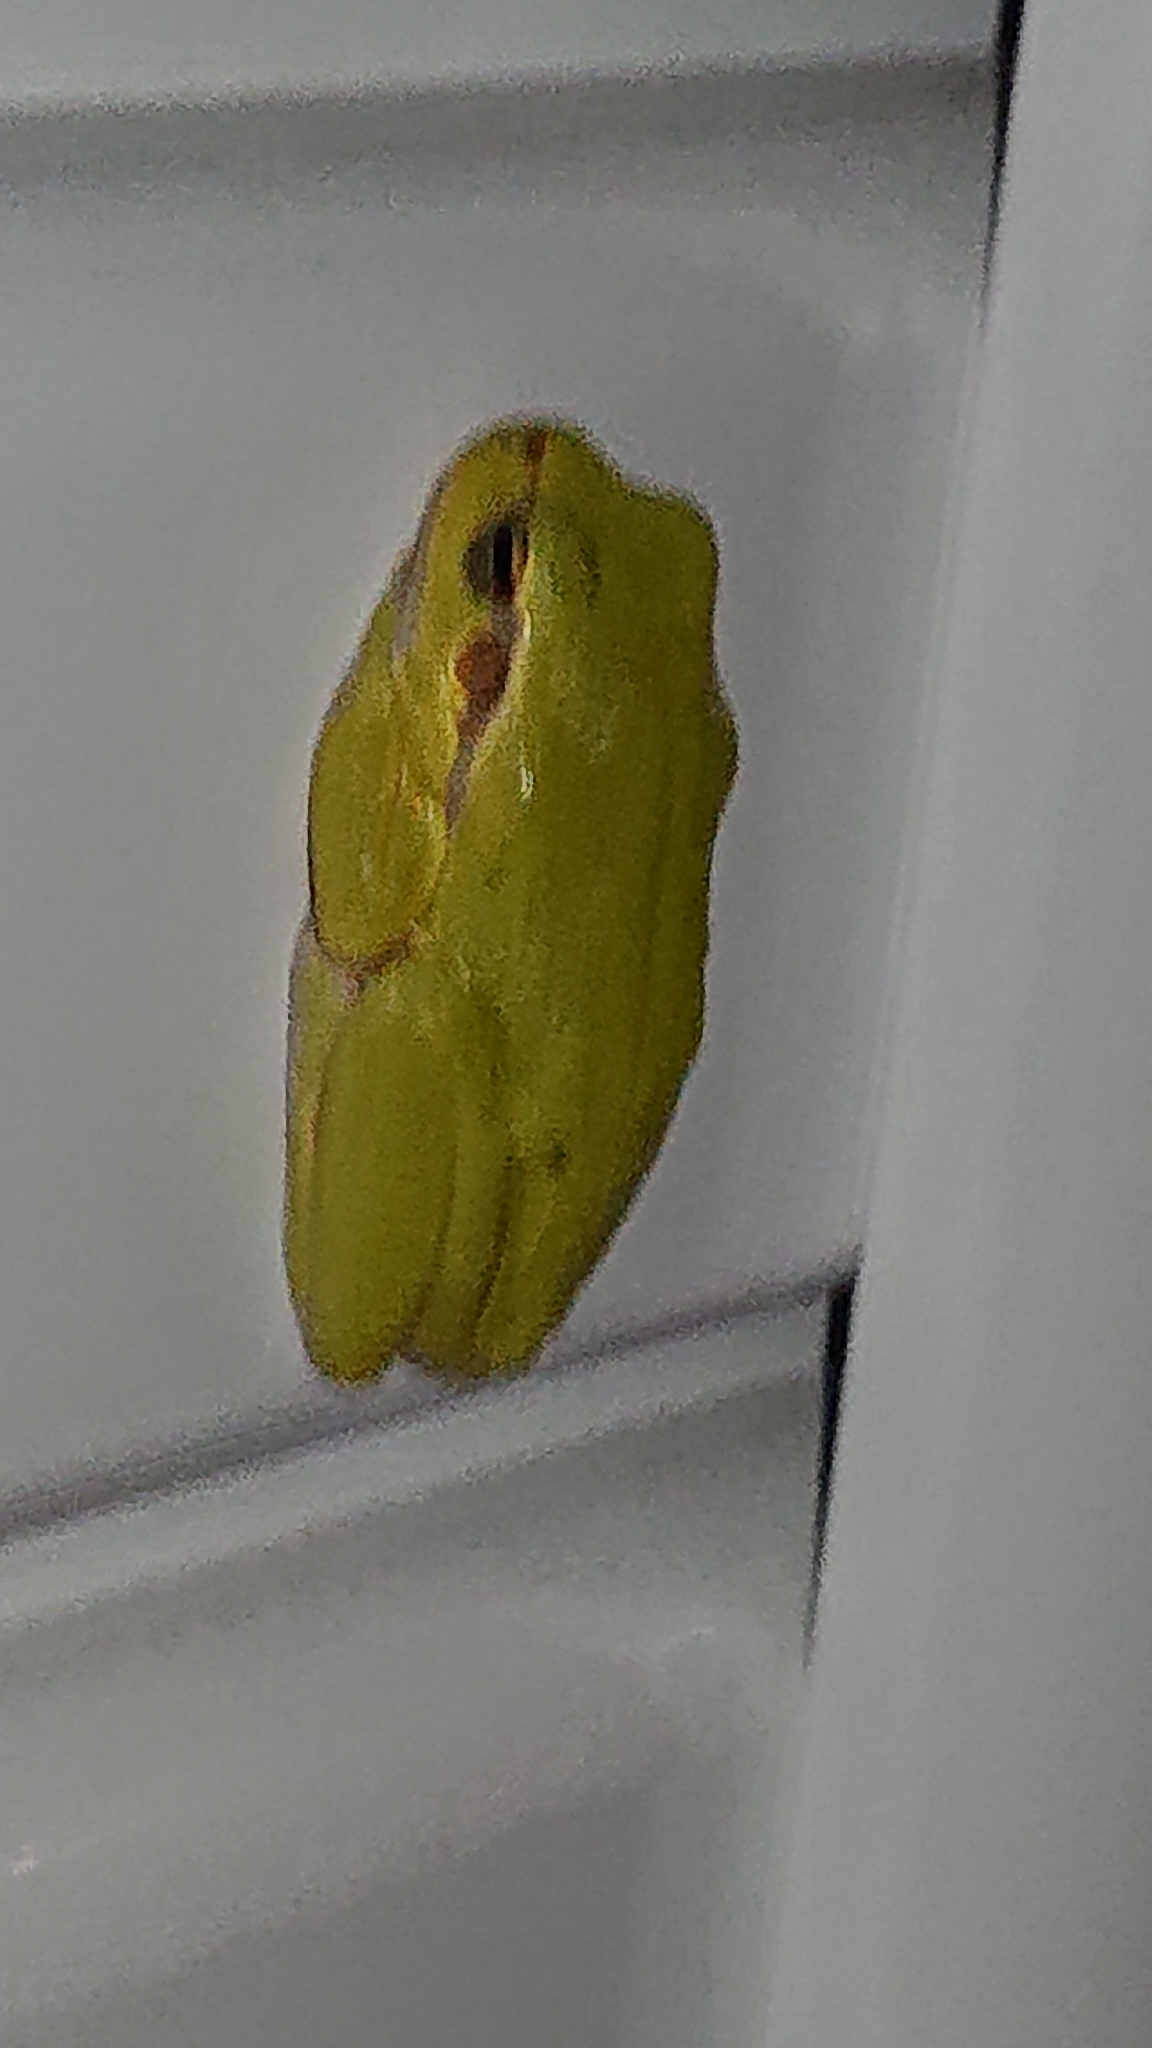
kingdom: Animalia
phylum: Chordata
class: Amphibia
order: Anura
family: Hylidae
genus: Hyla
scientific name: Hyla arborea
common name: Common tree frog
